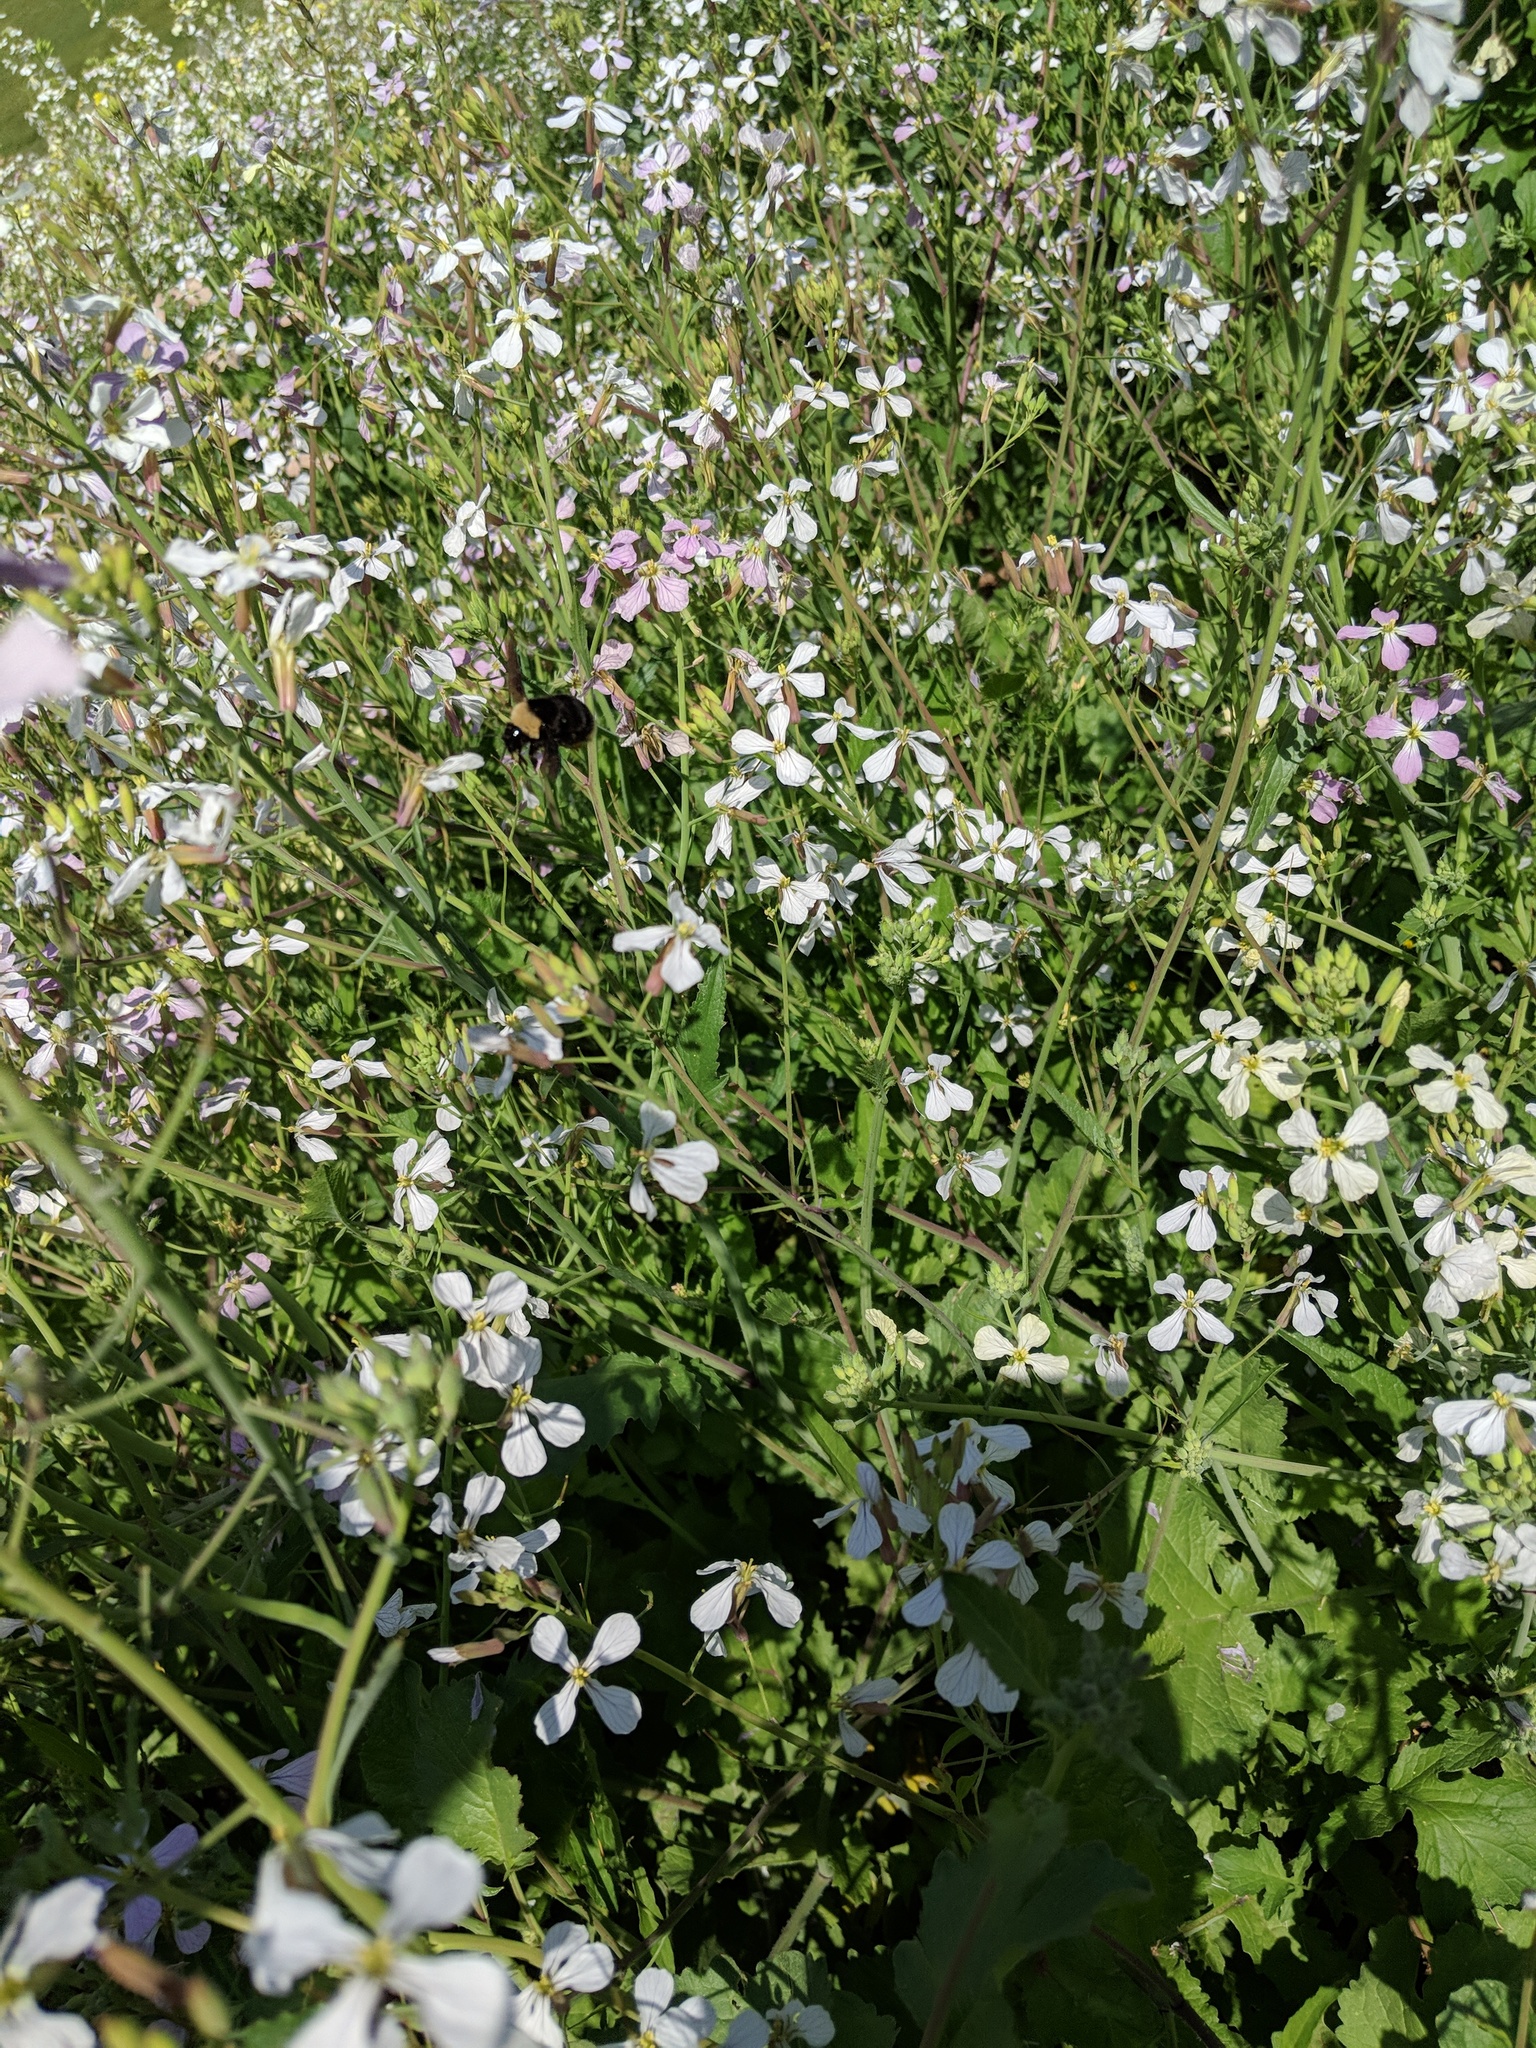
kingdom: Plantae
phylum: Tracheophyta
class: Magnoliopsida
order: Brassicales
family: Brassicaceae
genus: Raphanus
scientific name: Raphanus sativus
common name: Cultivated radish
